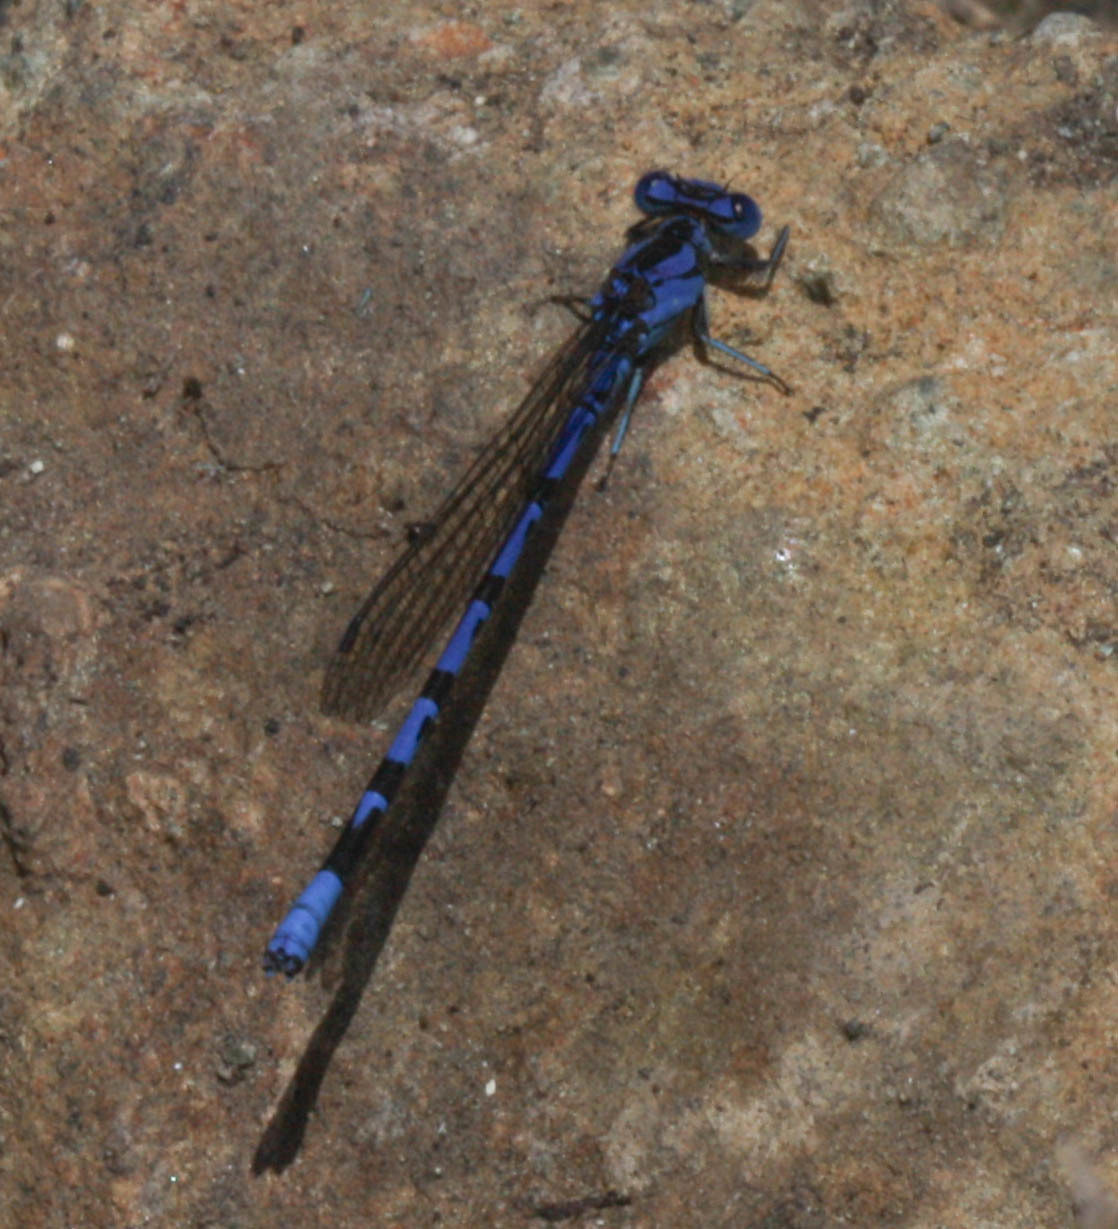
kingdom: Animalia
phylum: Arthropoda
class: Insecta
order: Odonata
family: Coenagrionidae
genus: Argia
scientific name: Argia vivida
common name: Vivid dancer
